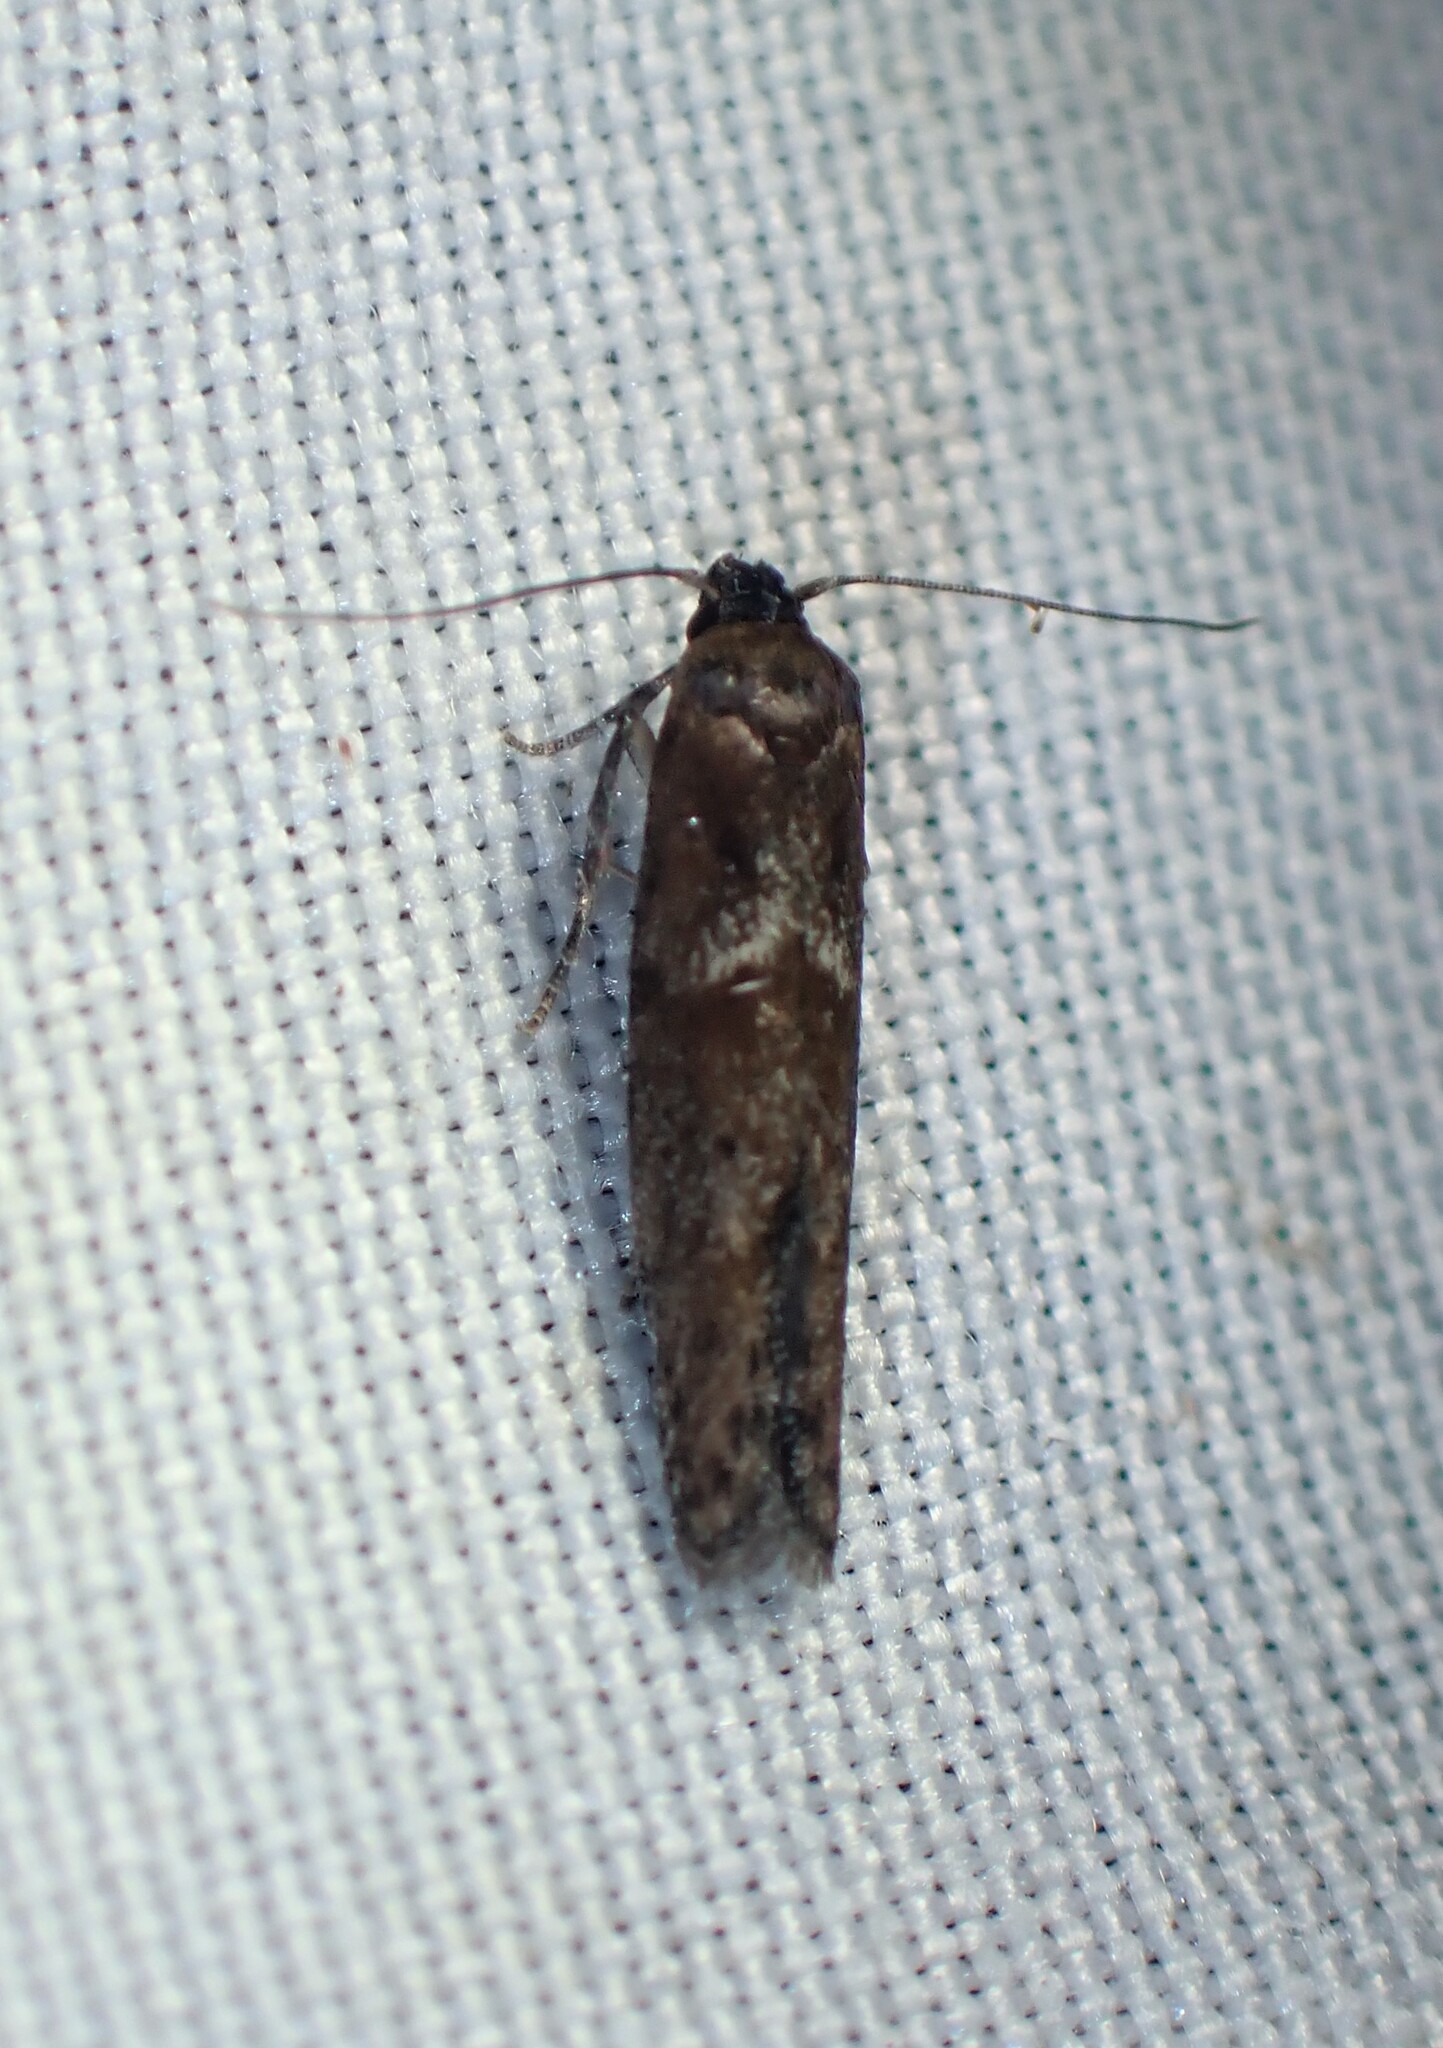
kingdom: Animalia
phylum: Arthropoda
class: Insecta
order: Lepidoptera
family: Blastobasidae
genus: Blastobasis
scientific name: Blastobasis maroccanella
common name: Blastobasid moth
